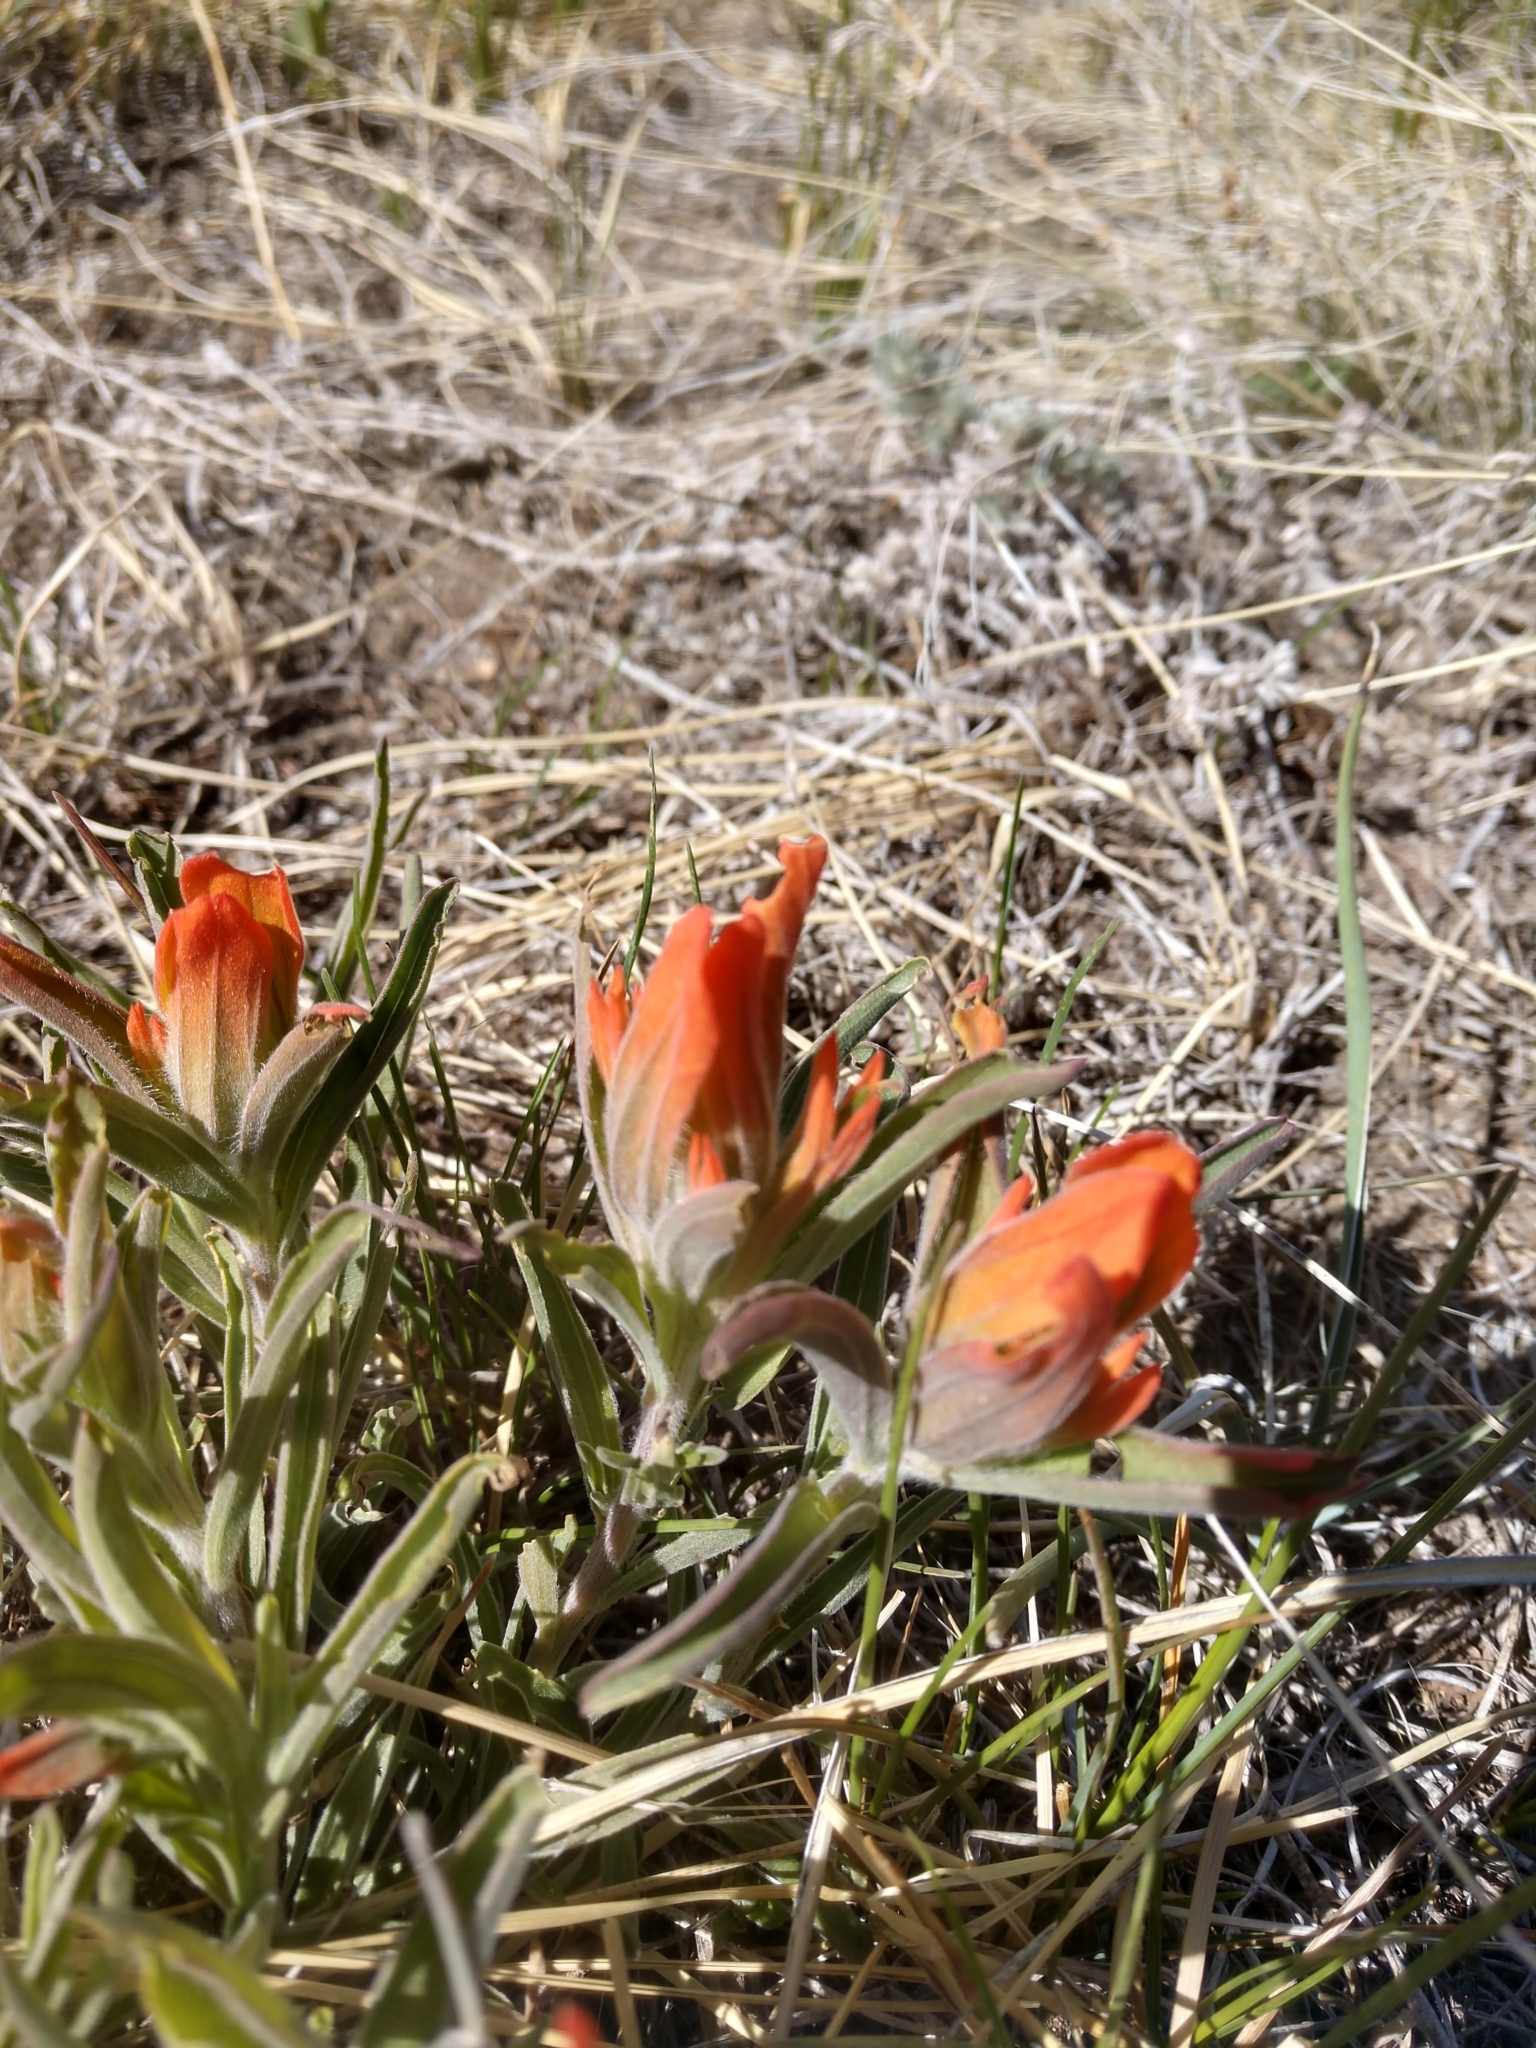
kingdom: Plantae
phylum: Tracheophyta
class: Magnoliopsida
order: Lamiales
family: Orobanchaceae
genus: Castilleja
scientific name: Castilleja integra
